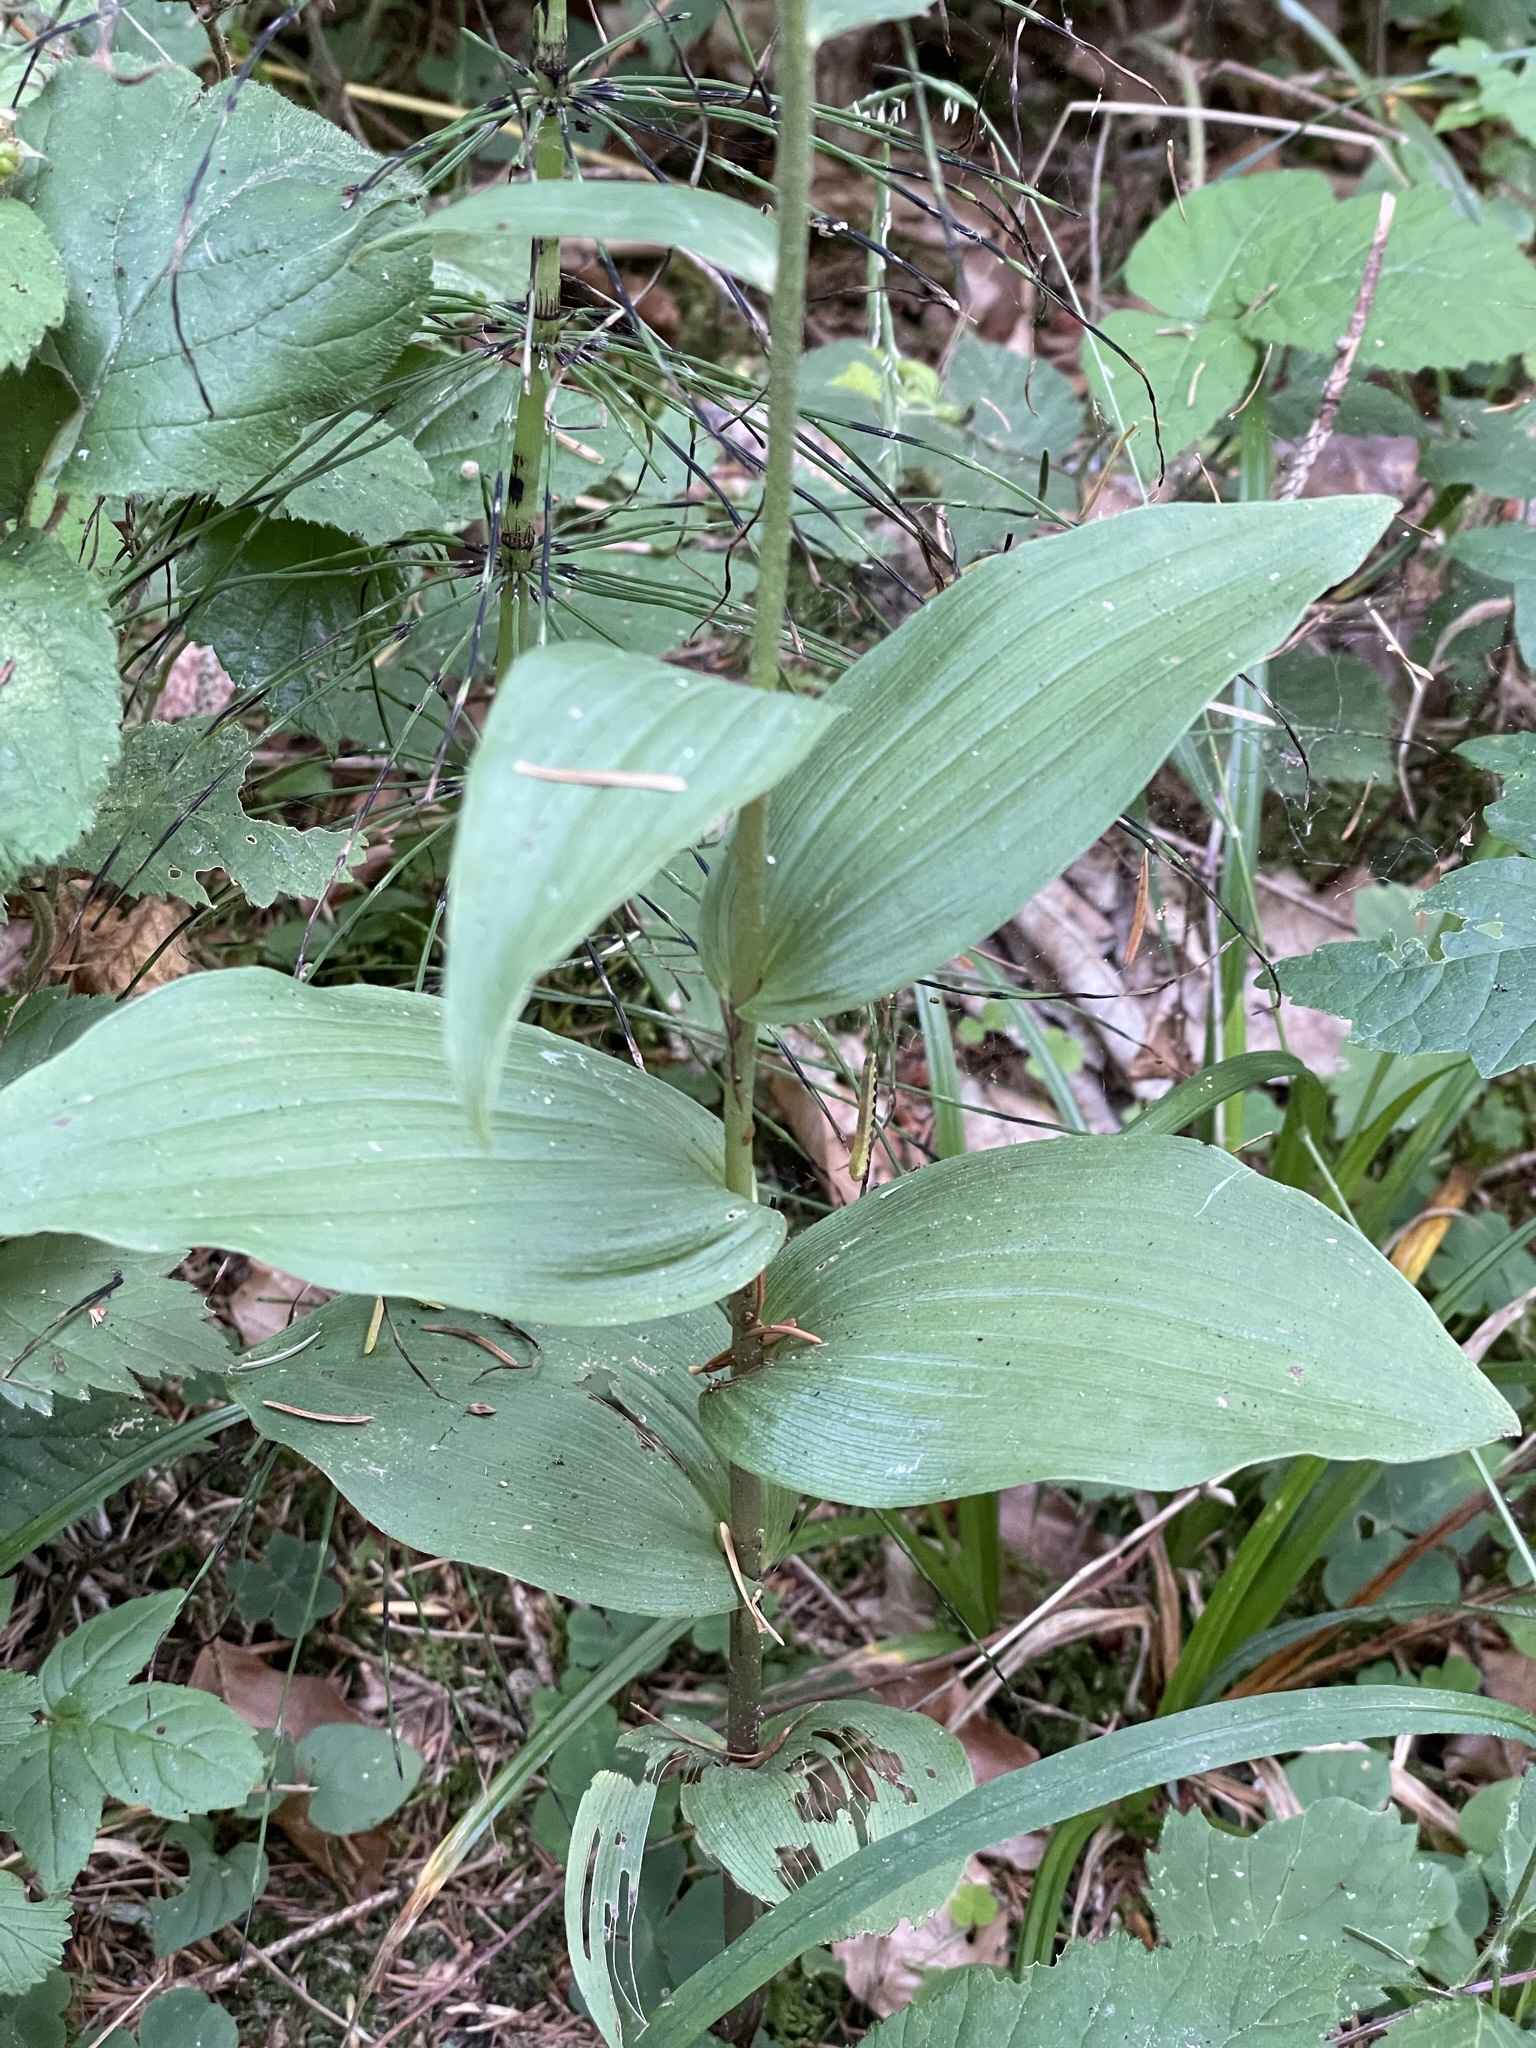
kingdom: Plantae
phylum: Tracheophyta
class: Liliopsida
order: Asparagales
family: Orchidaceae
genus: Epipactis
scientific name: Epipactis helleborine
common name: Broad-leaved helleborine
